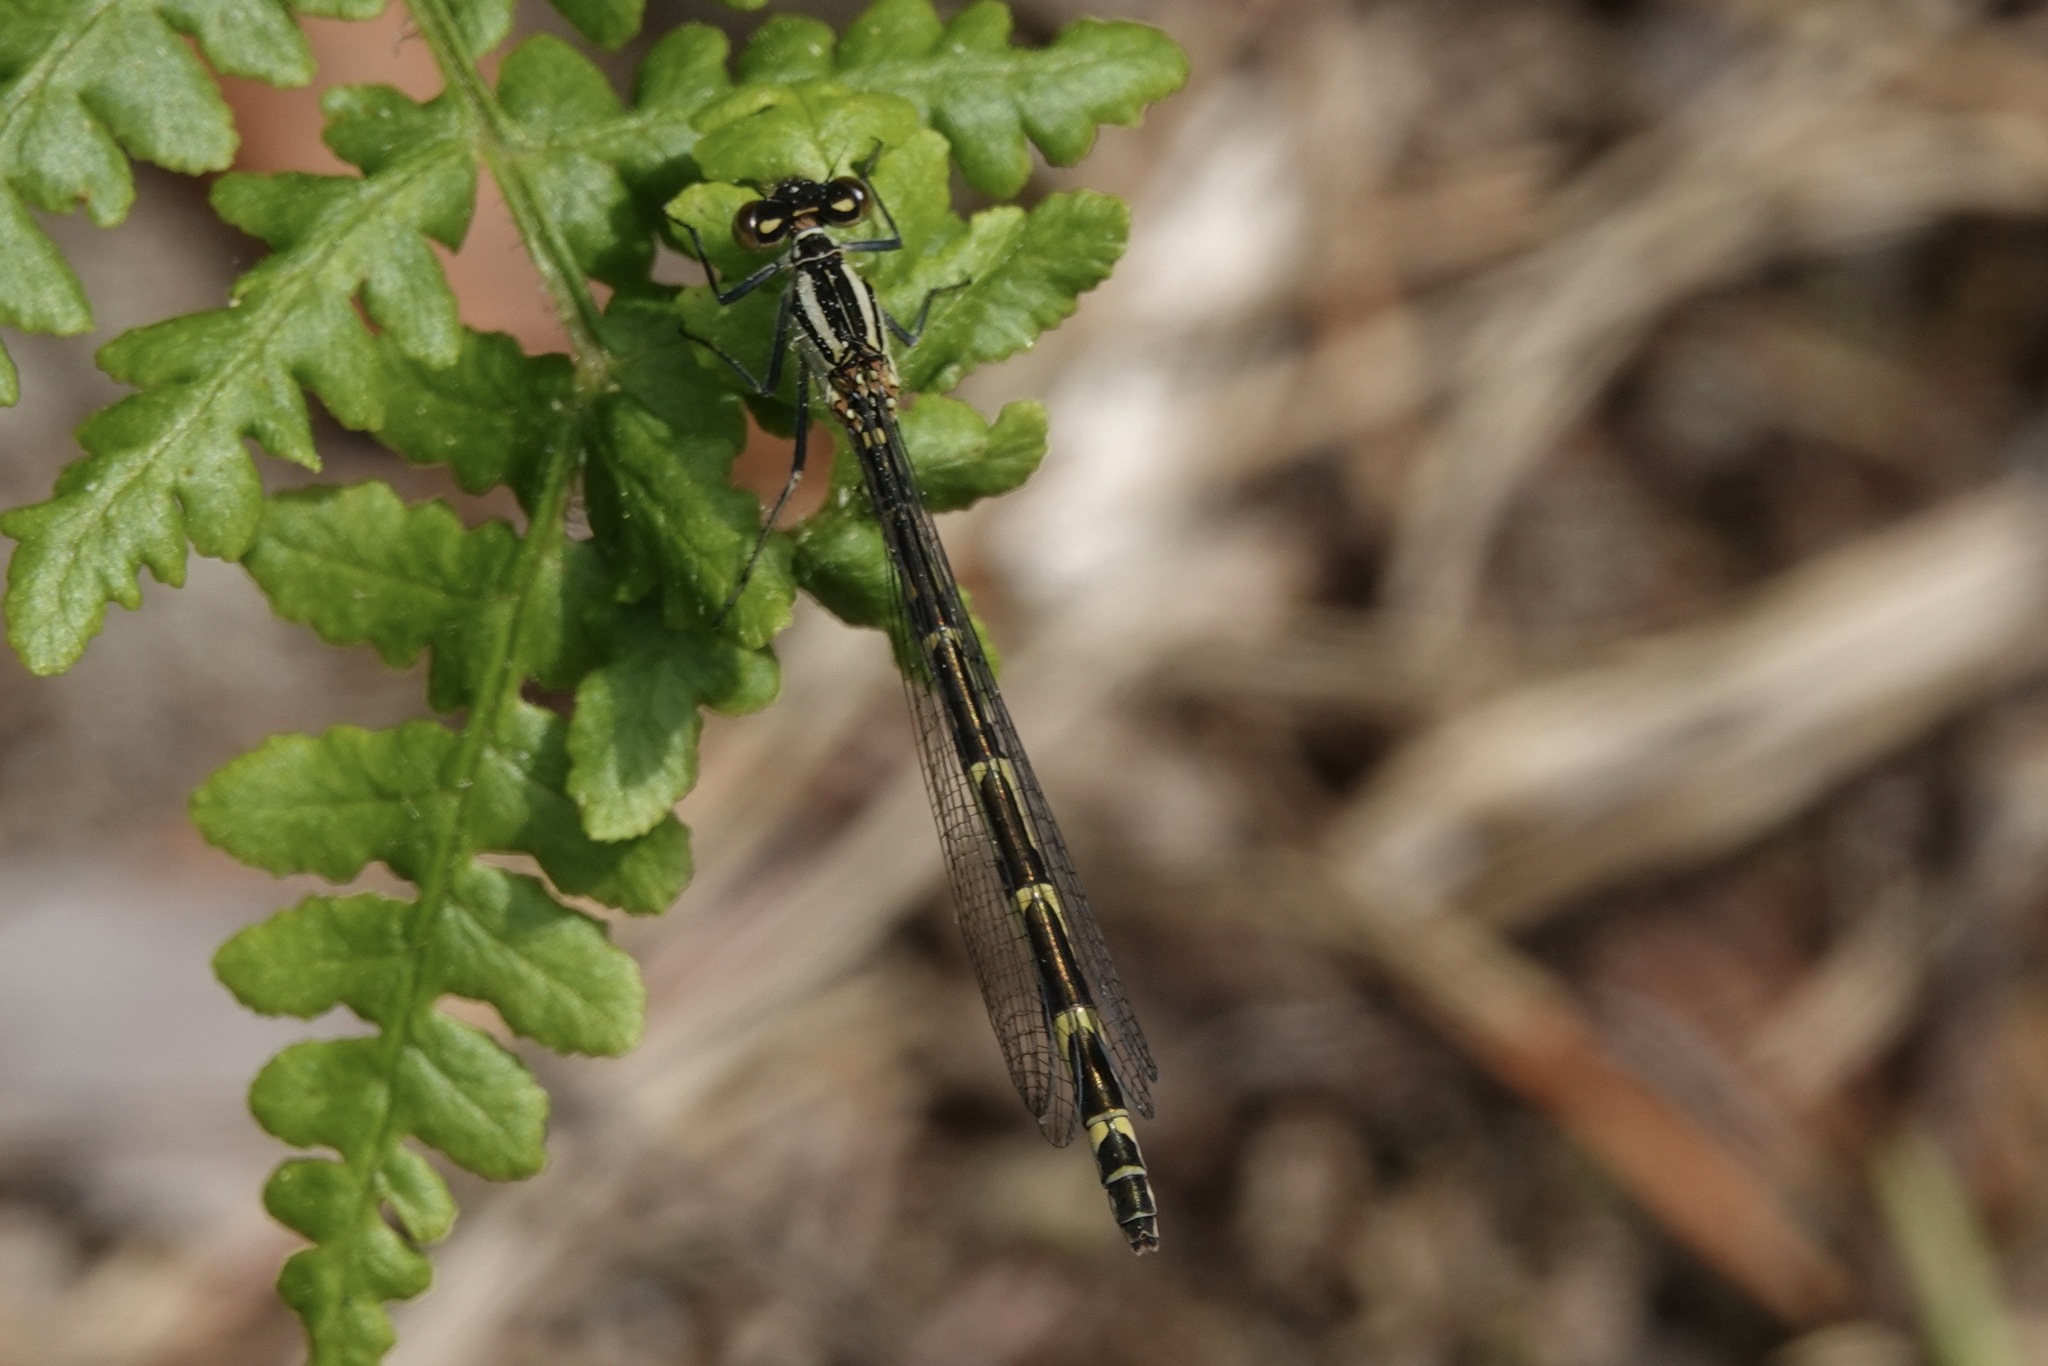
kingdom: Animalia
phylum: Arthropoda
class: Insecta
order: Odonata
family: Coenagrionidae
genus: Enallagma
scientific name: Enallagma cyathigerum
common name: Common blue damselfly
